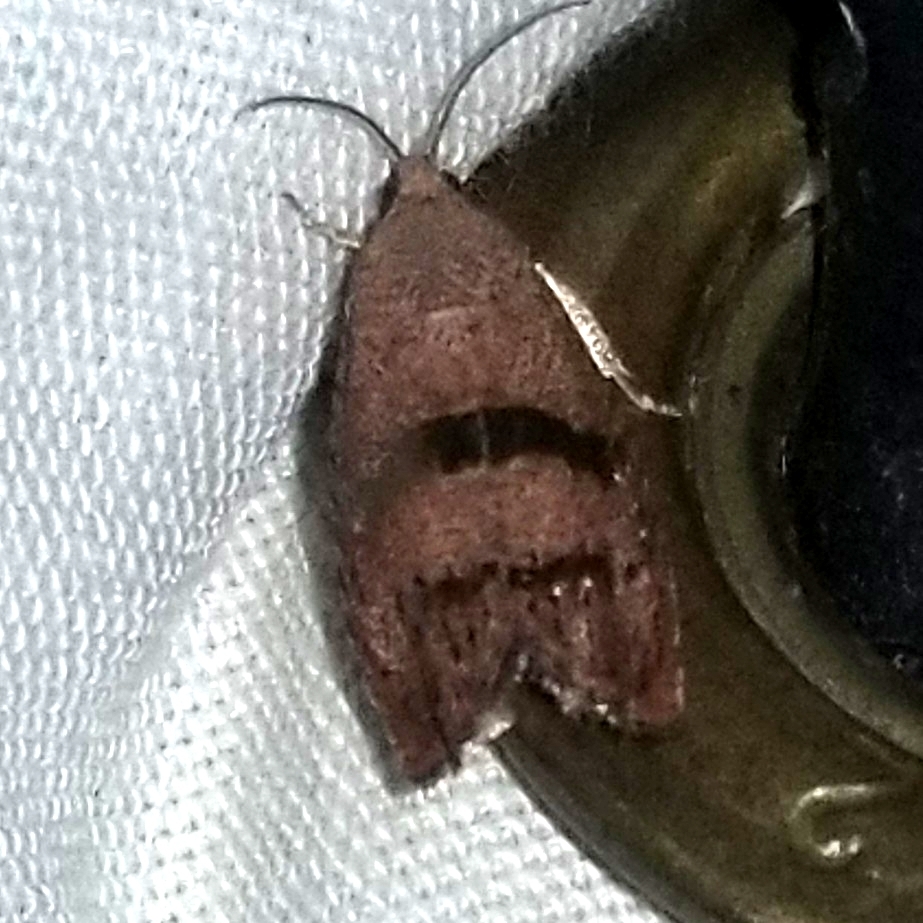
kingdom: Animalia
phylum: Arthropoda
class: Insecta
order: Lepidoptera
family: Tortricidae
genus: Cydia
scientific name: Cydia latiferreana
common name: Filbertworm moth
